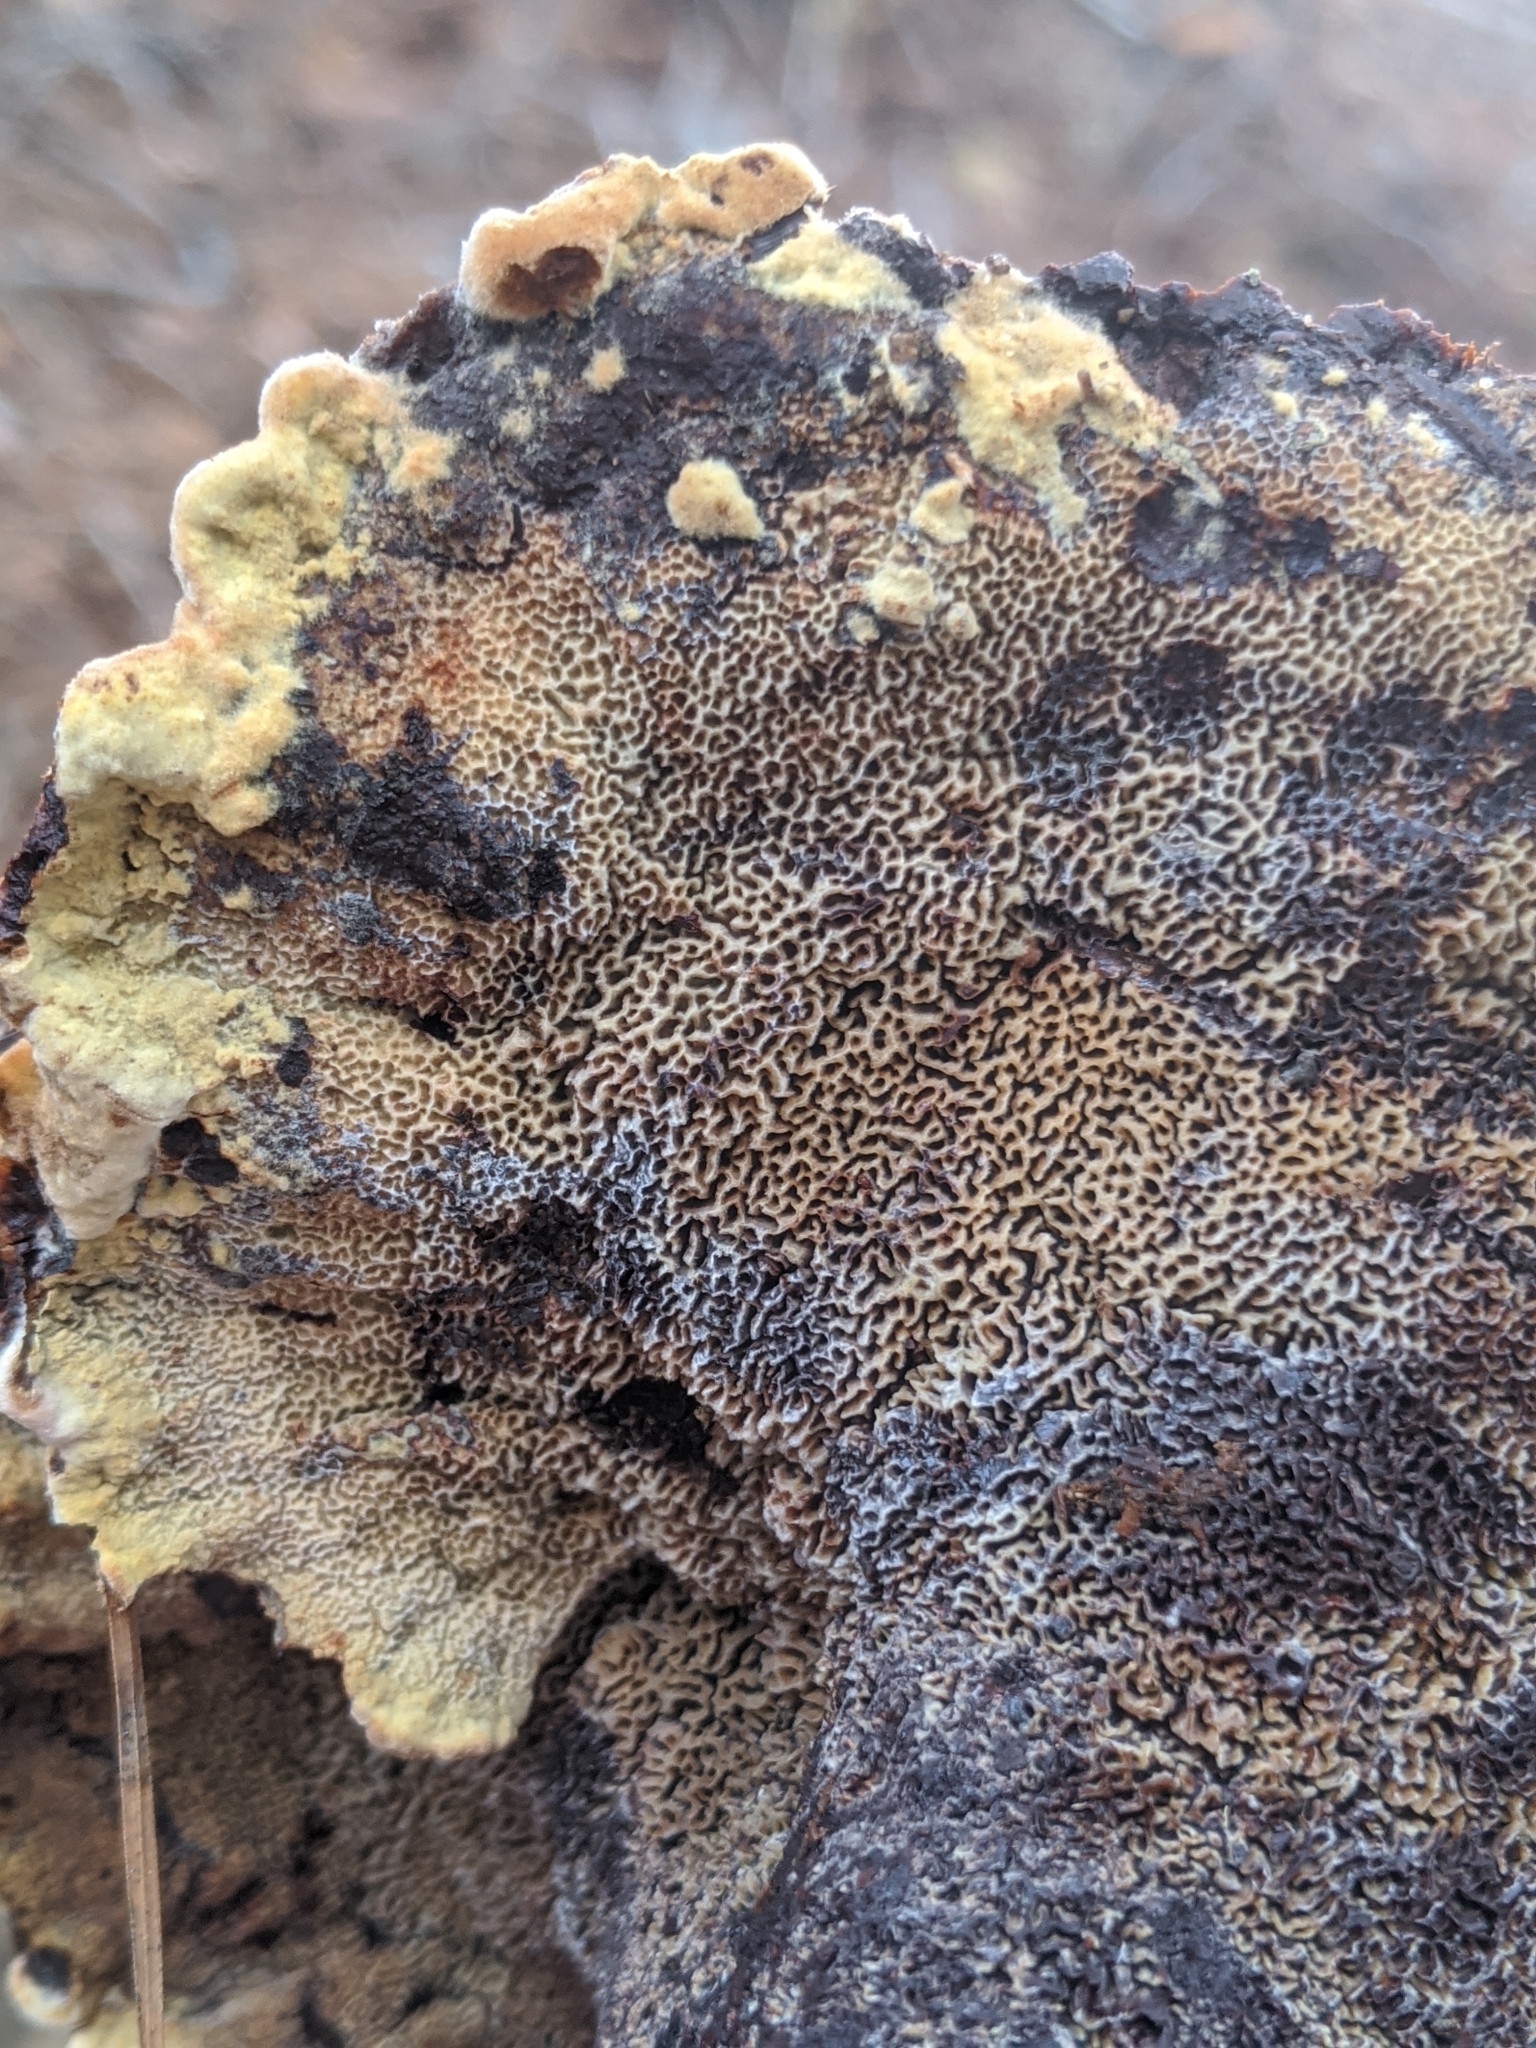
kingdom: Fungi
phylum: Basidiomycota
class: Agaricomycetes
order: Polyporales
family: Laetiporaceae
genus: Phaeolus
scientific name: Phaeolus schweinitzii
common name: Dyer's mazegill
